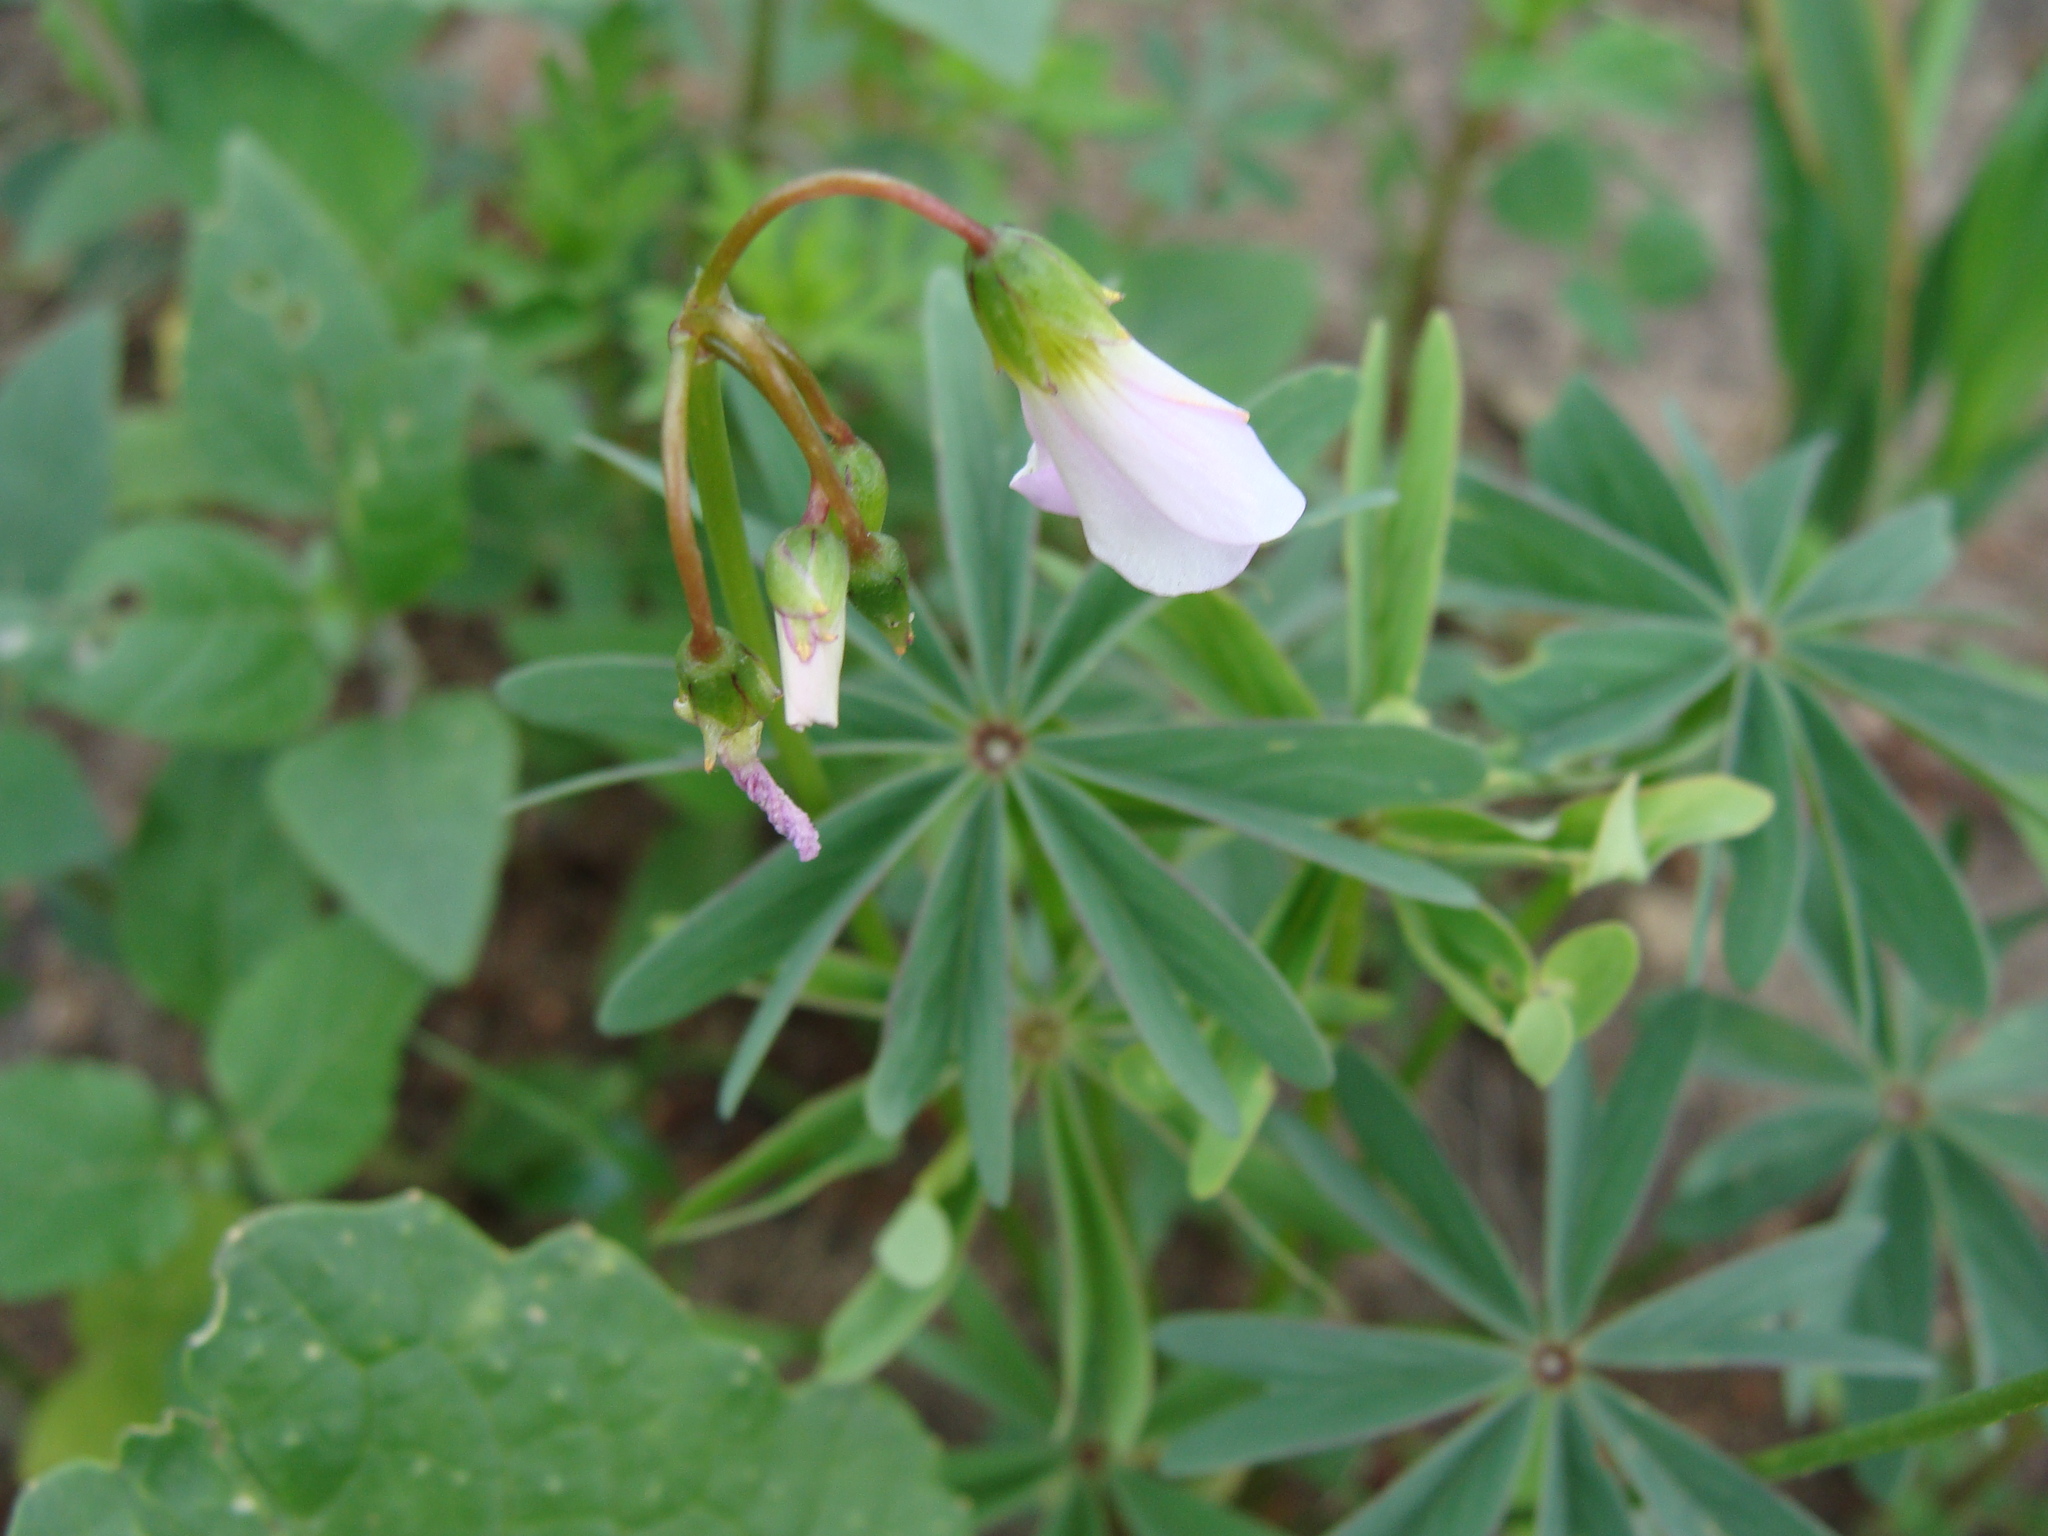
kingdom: Plantae
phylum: Tracheophyta
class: Magnoliopsida
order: Oxalidales
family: Oxalidaceae
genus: Oxalis
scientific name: Oxalis decaphylla
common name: Ten-leaved pink-sorrel
